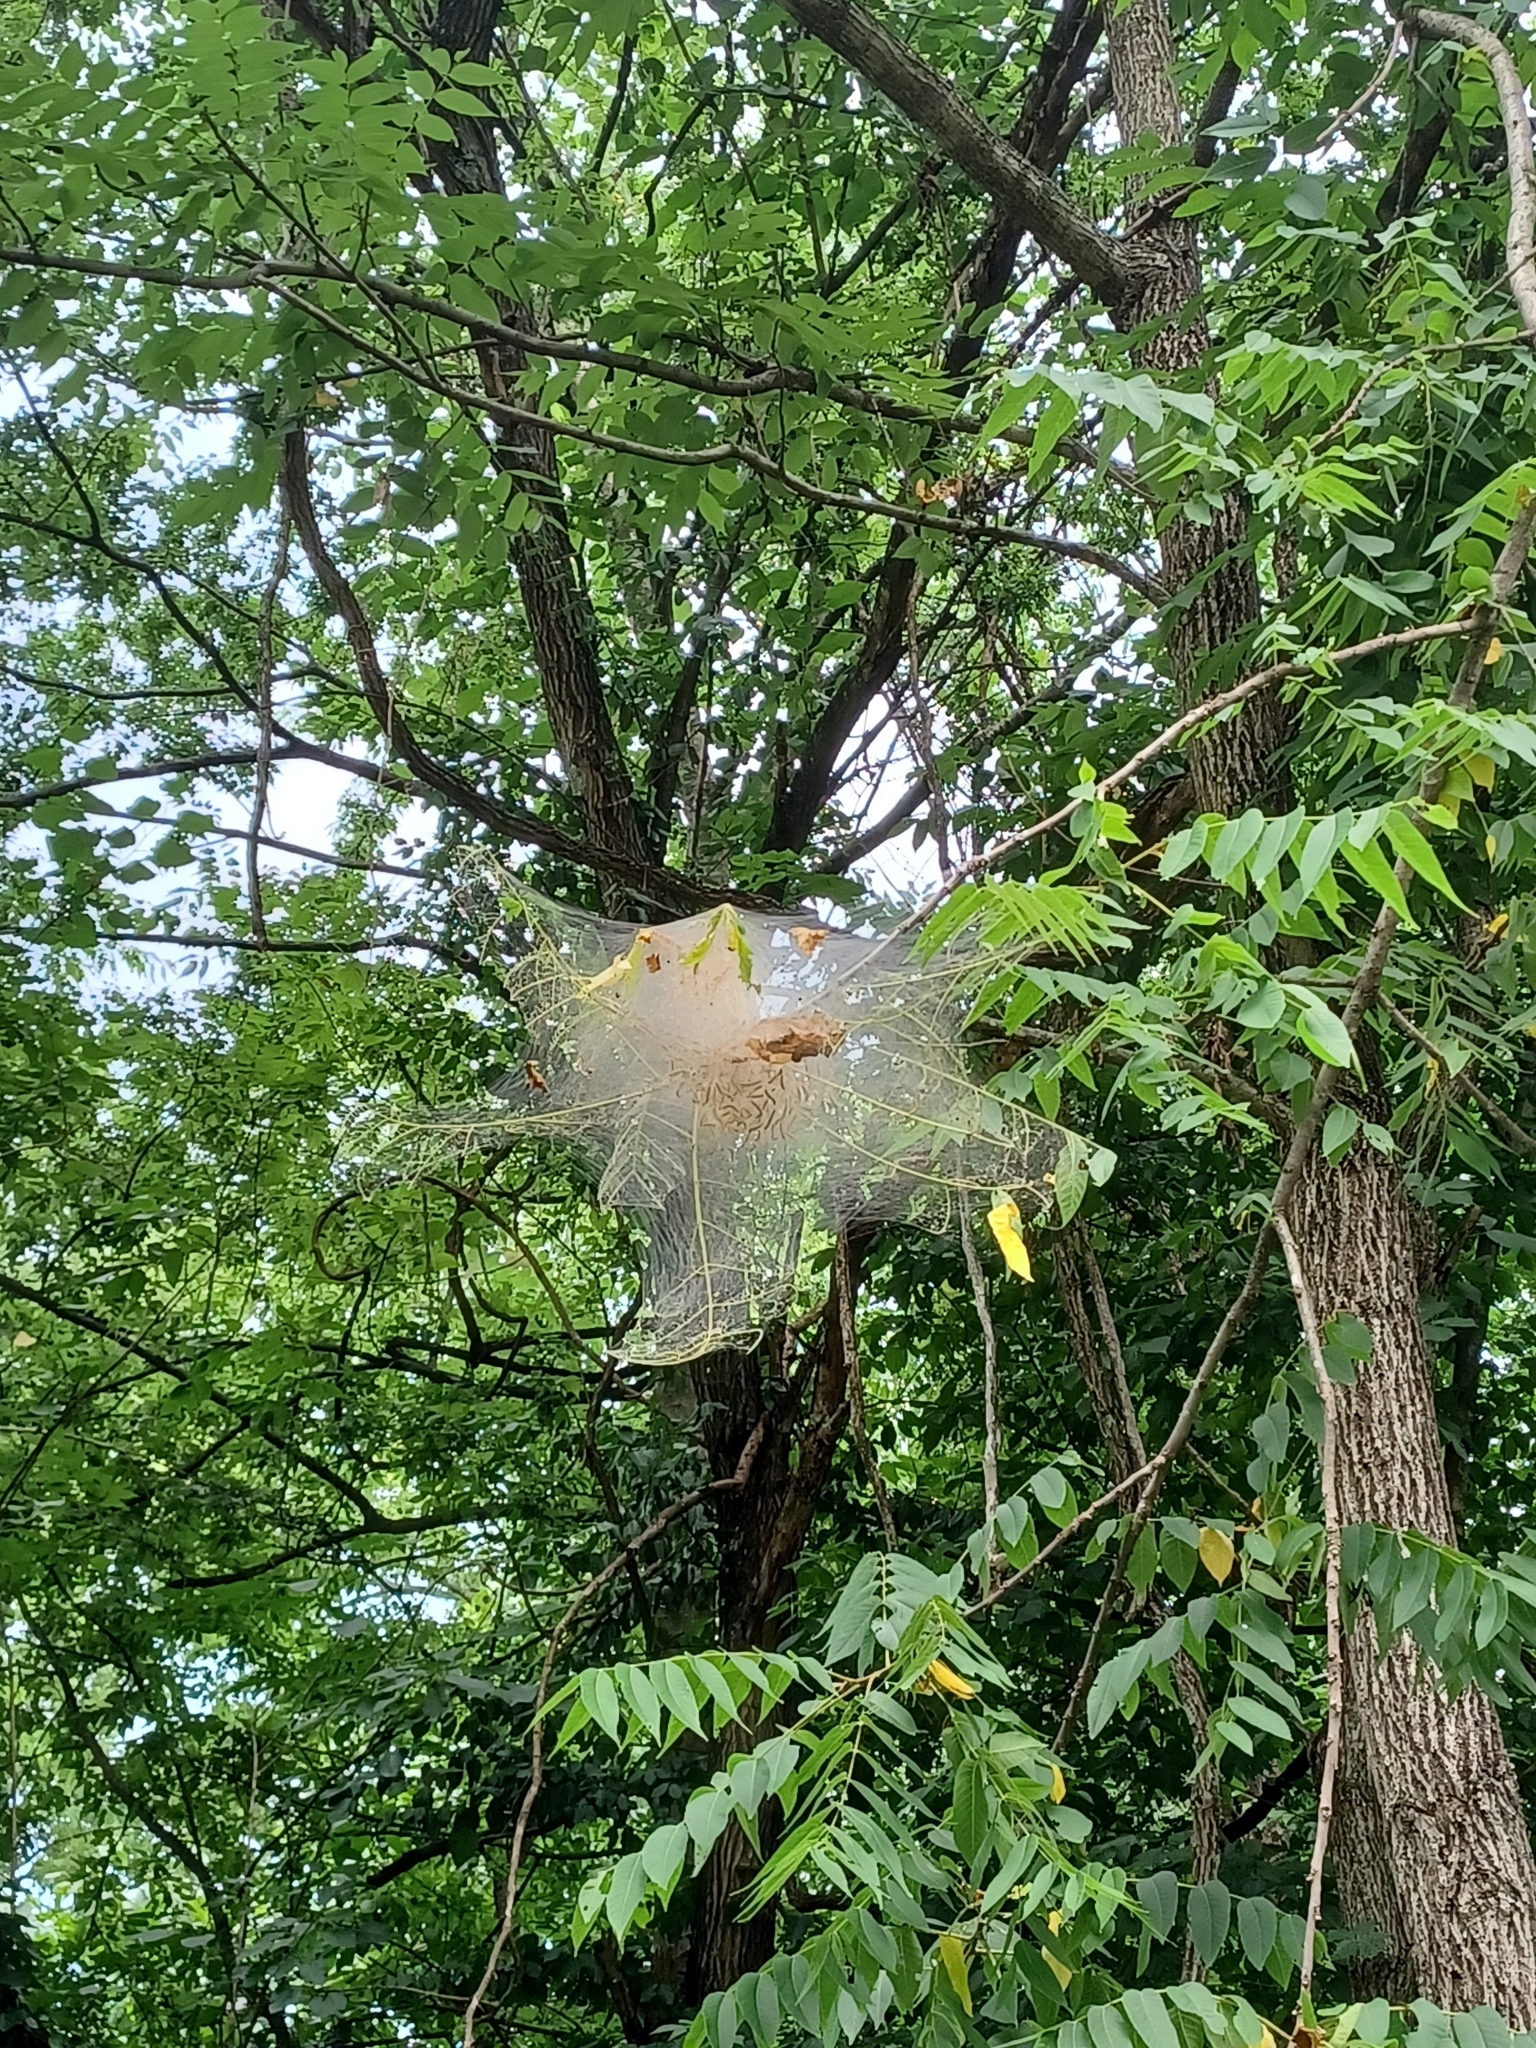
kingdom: Animalia
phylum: Arthropoda
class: Insecta
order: Lepidoptera
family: Erebidae
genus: Hyphantria
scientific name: Hyphantria cunea
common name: American white moth
